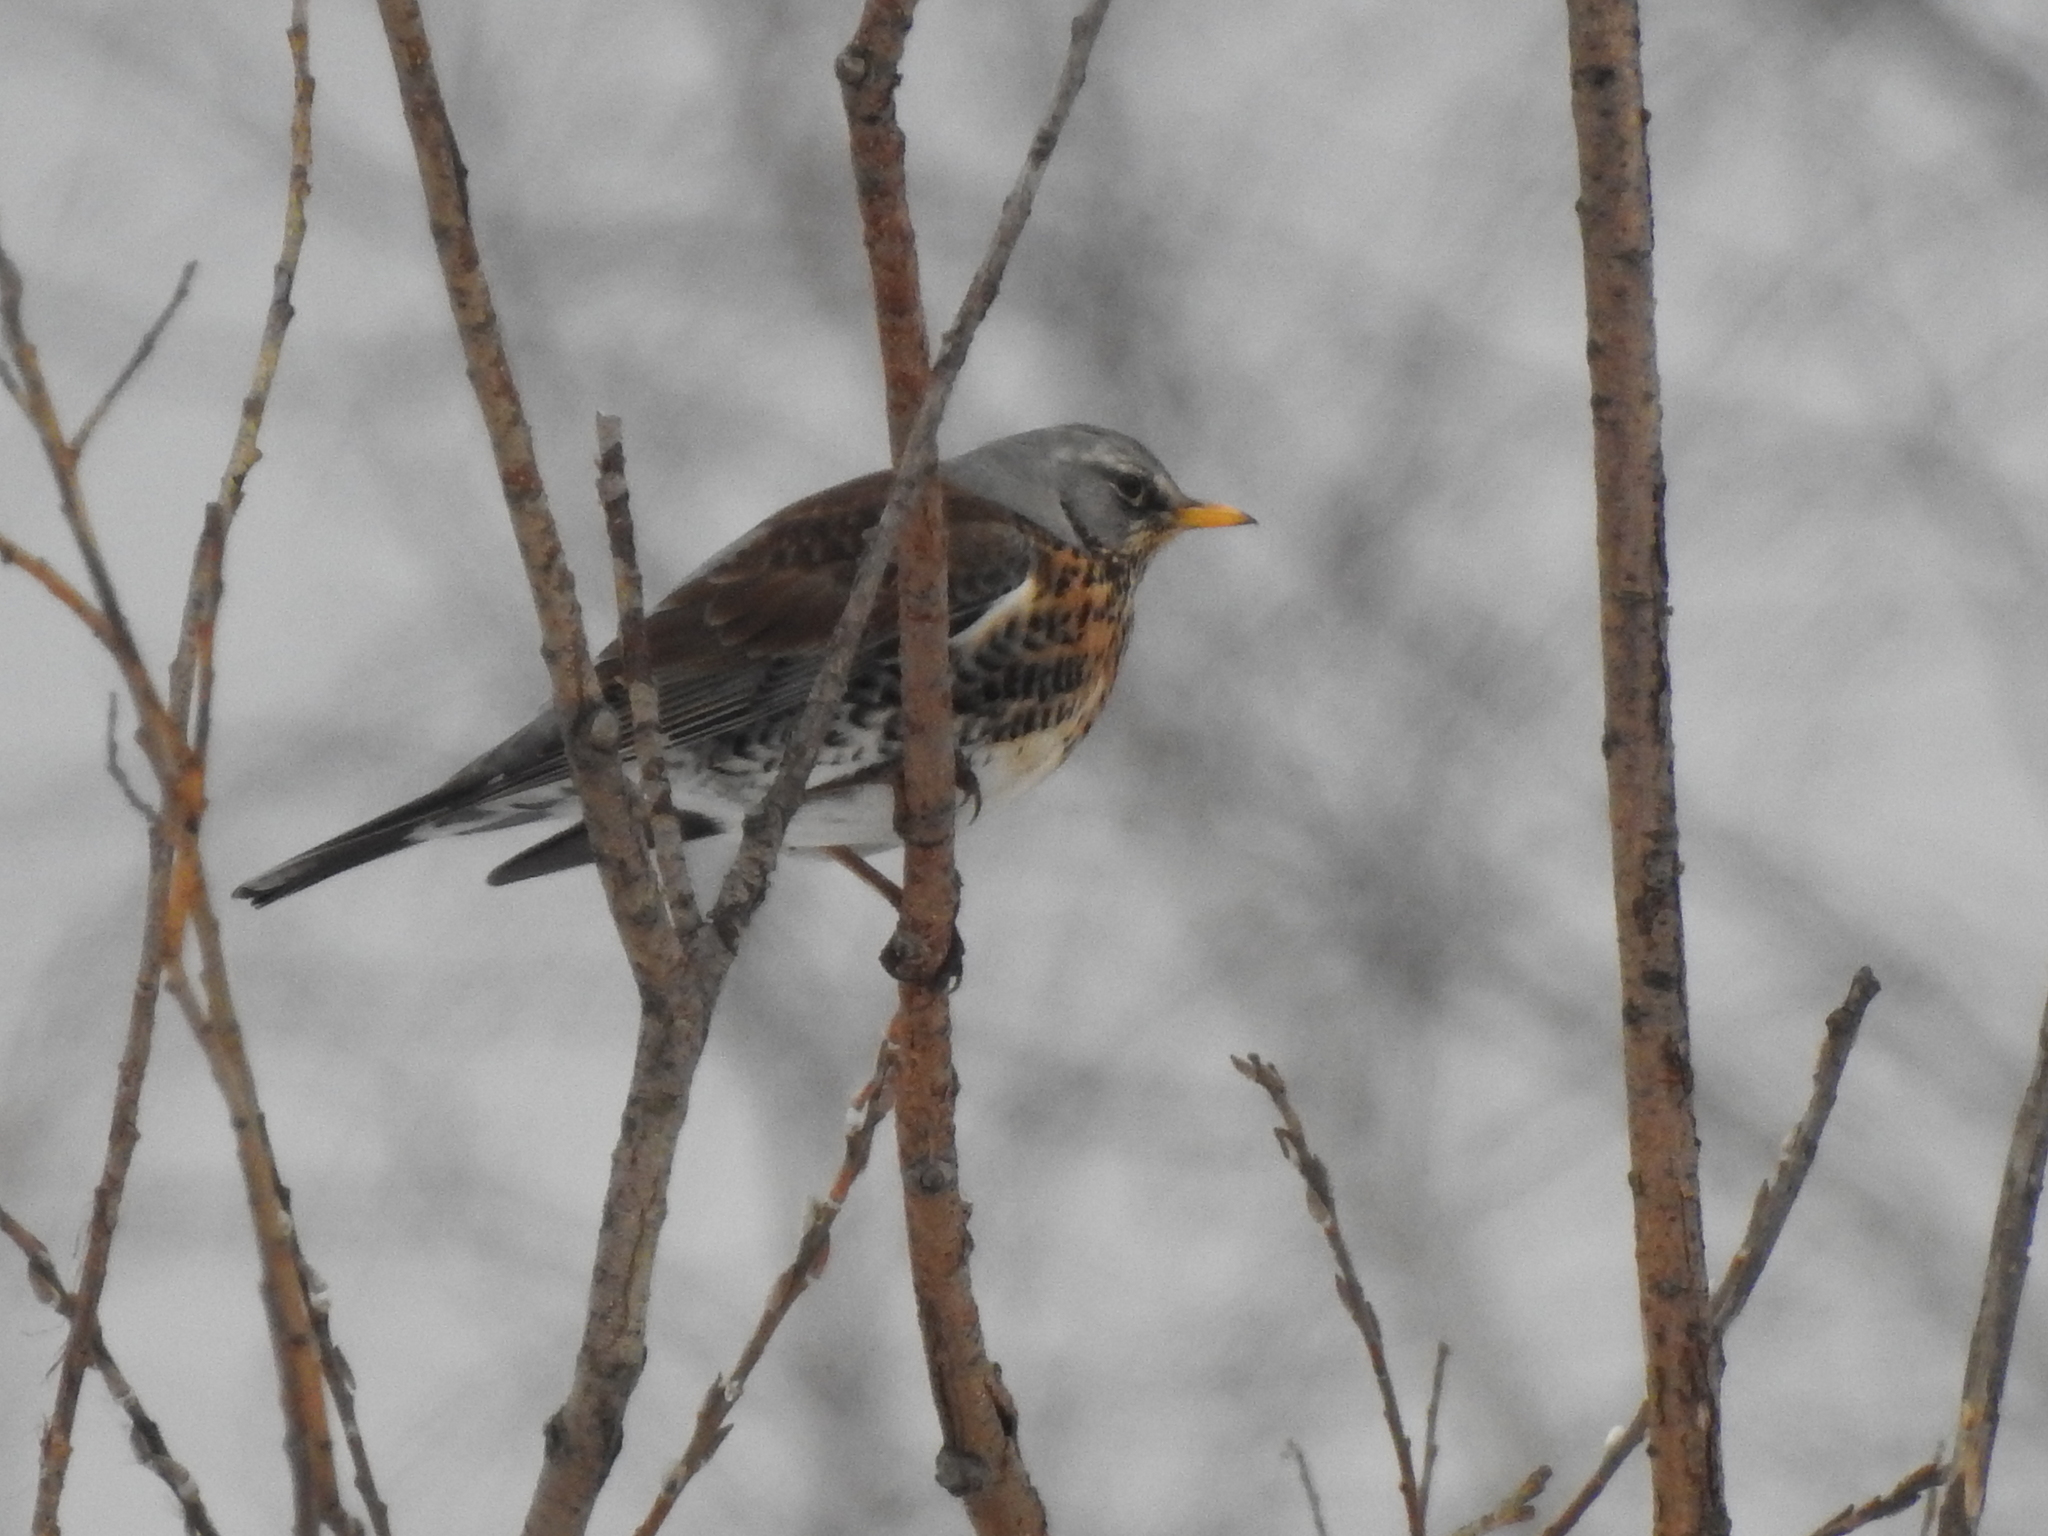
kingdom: Animalia
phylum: Chordata
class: Aves
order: Passeriformes
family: Turdidae
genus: Turdus
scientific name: Turdus pilaris
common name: Fieldfare
